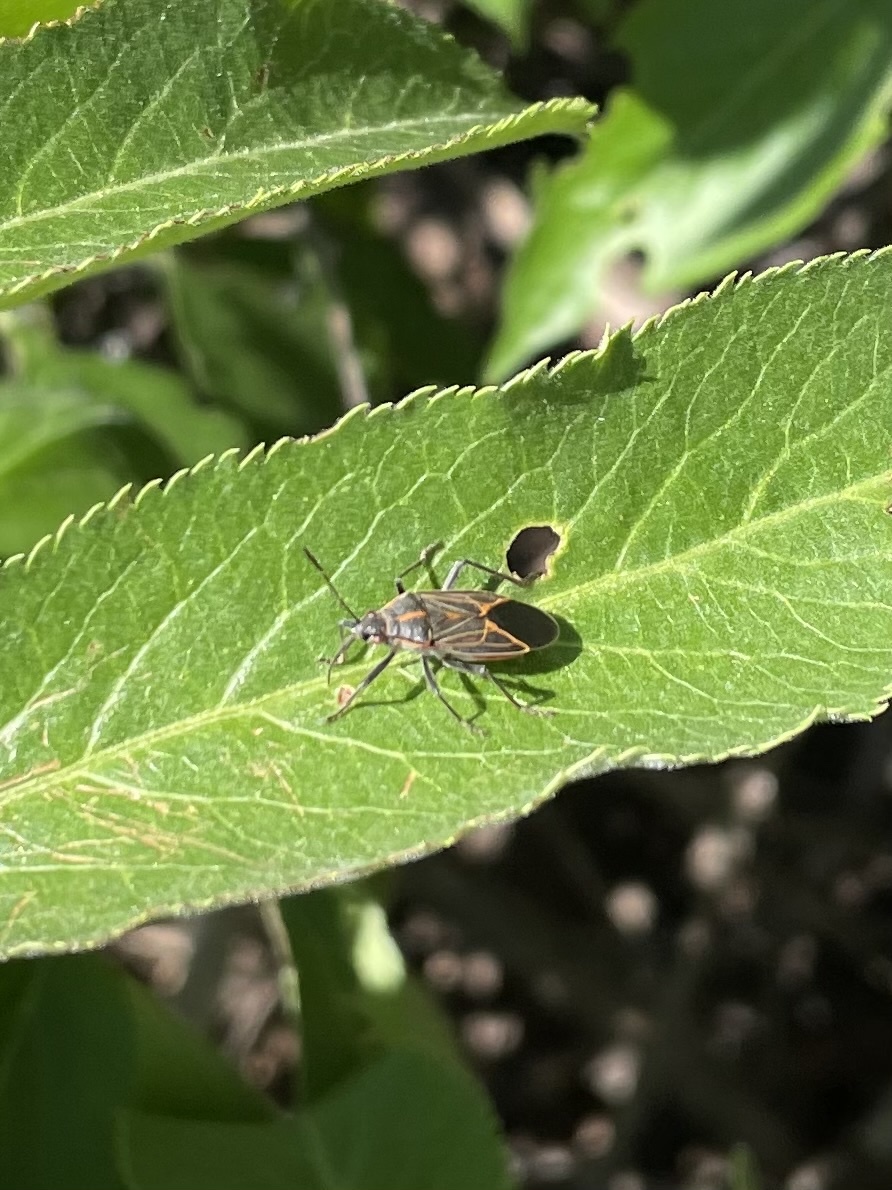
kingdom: Animalia
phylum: Arthropoda
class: Insecta
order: Hemiptera
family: Rhopalidae
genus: Boisea
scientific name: Boisea rubrolineata
